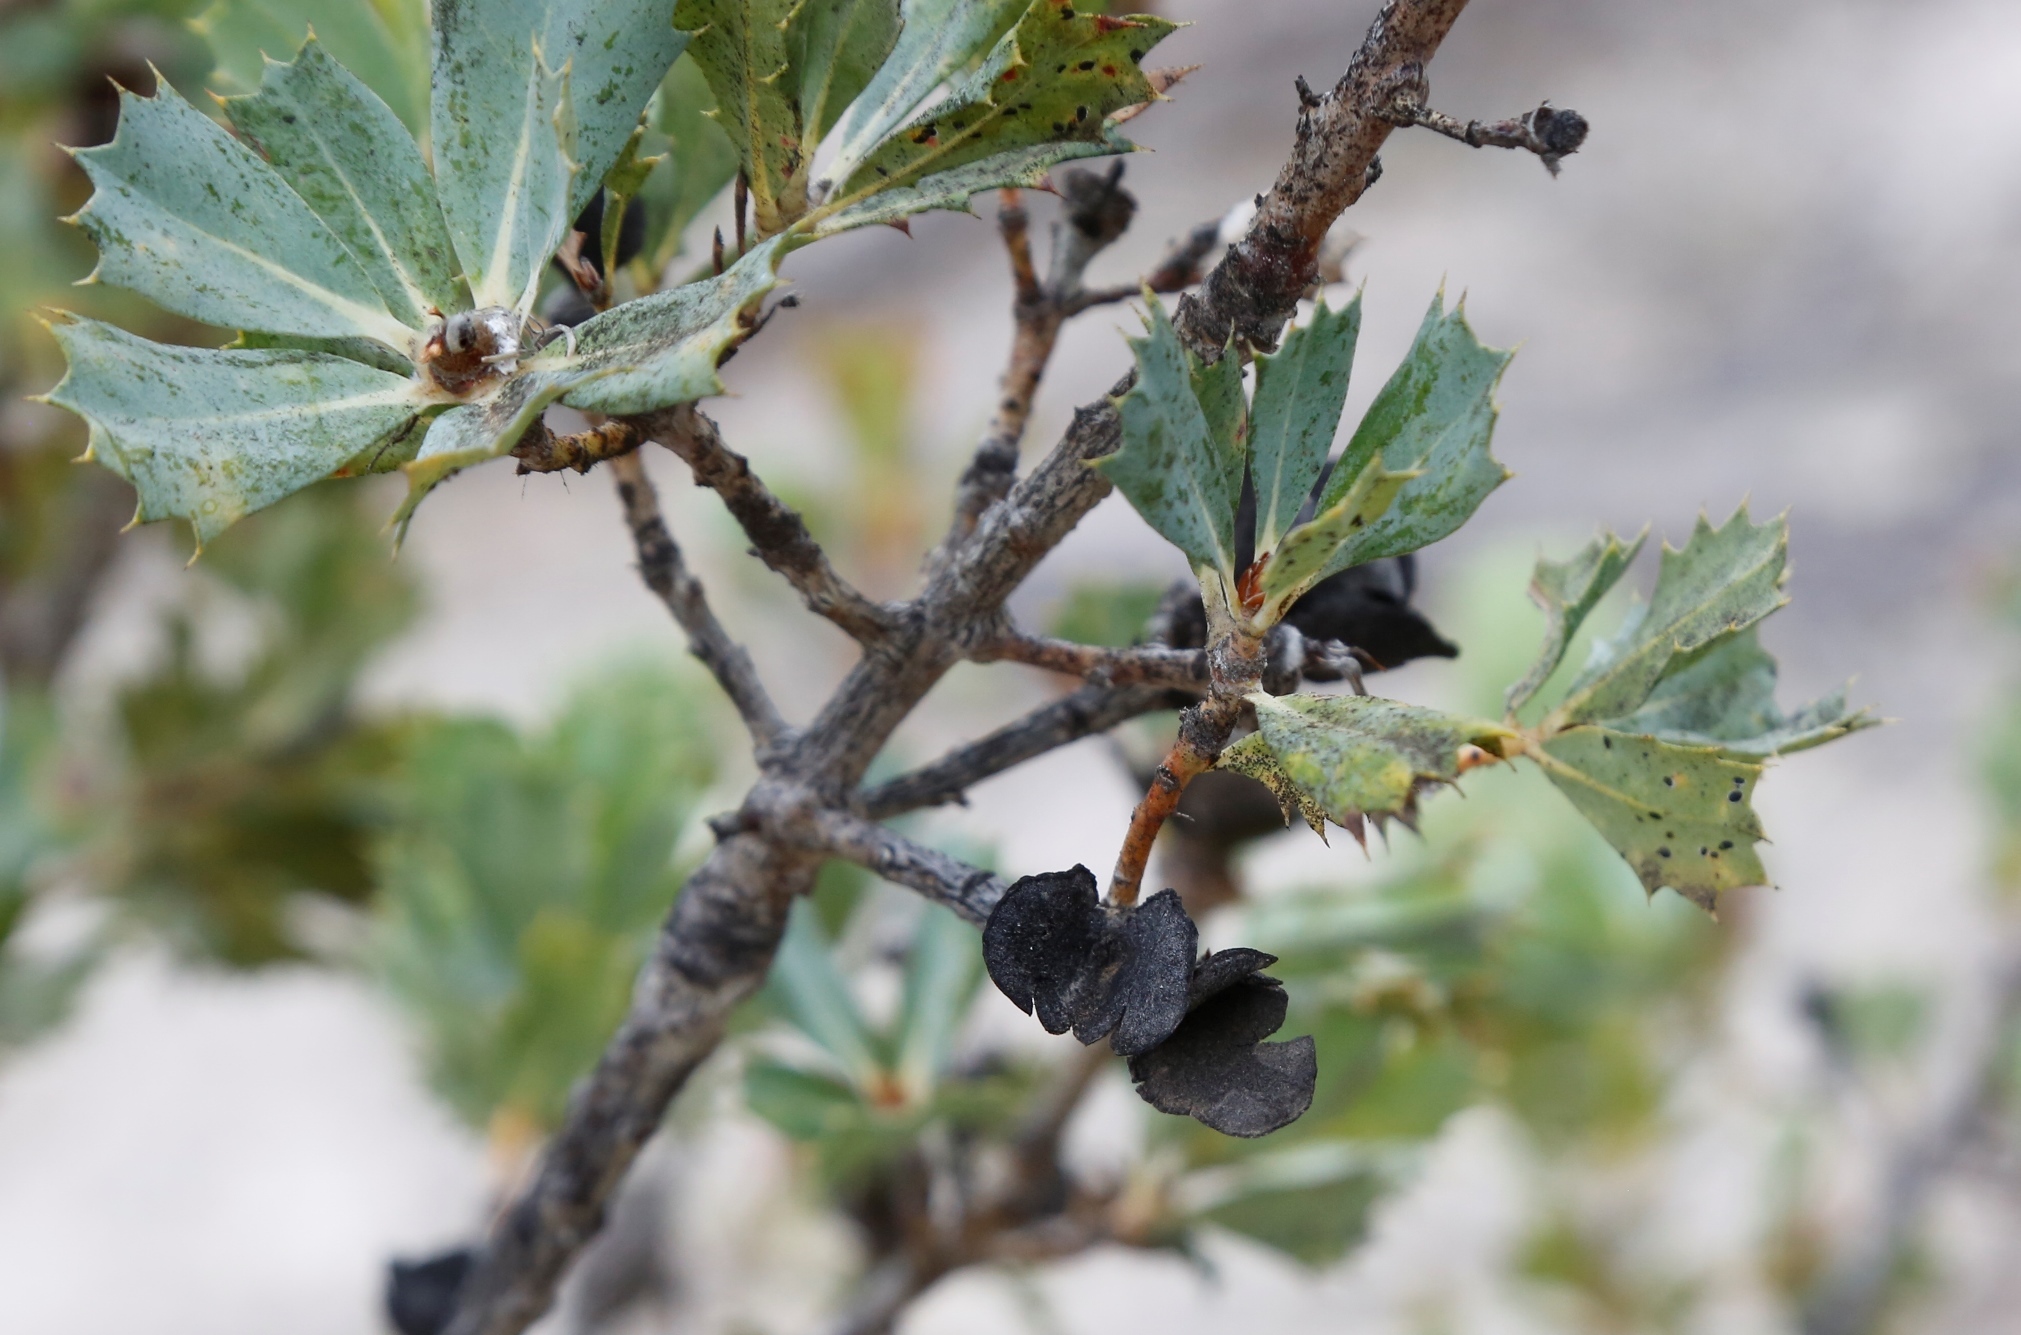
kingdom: Plantae
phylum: Tracheophyta
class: Magnoliopsida
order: Proteales
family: Proteaceae
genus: Banksia
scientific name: Banksia sessilis
